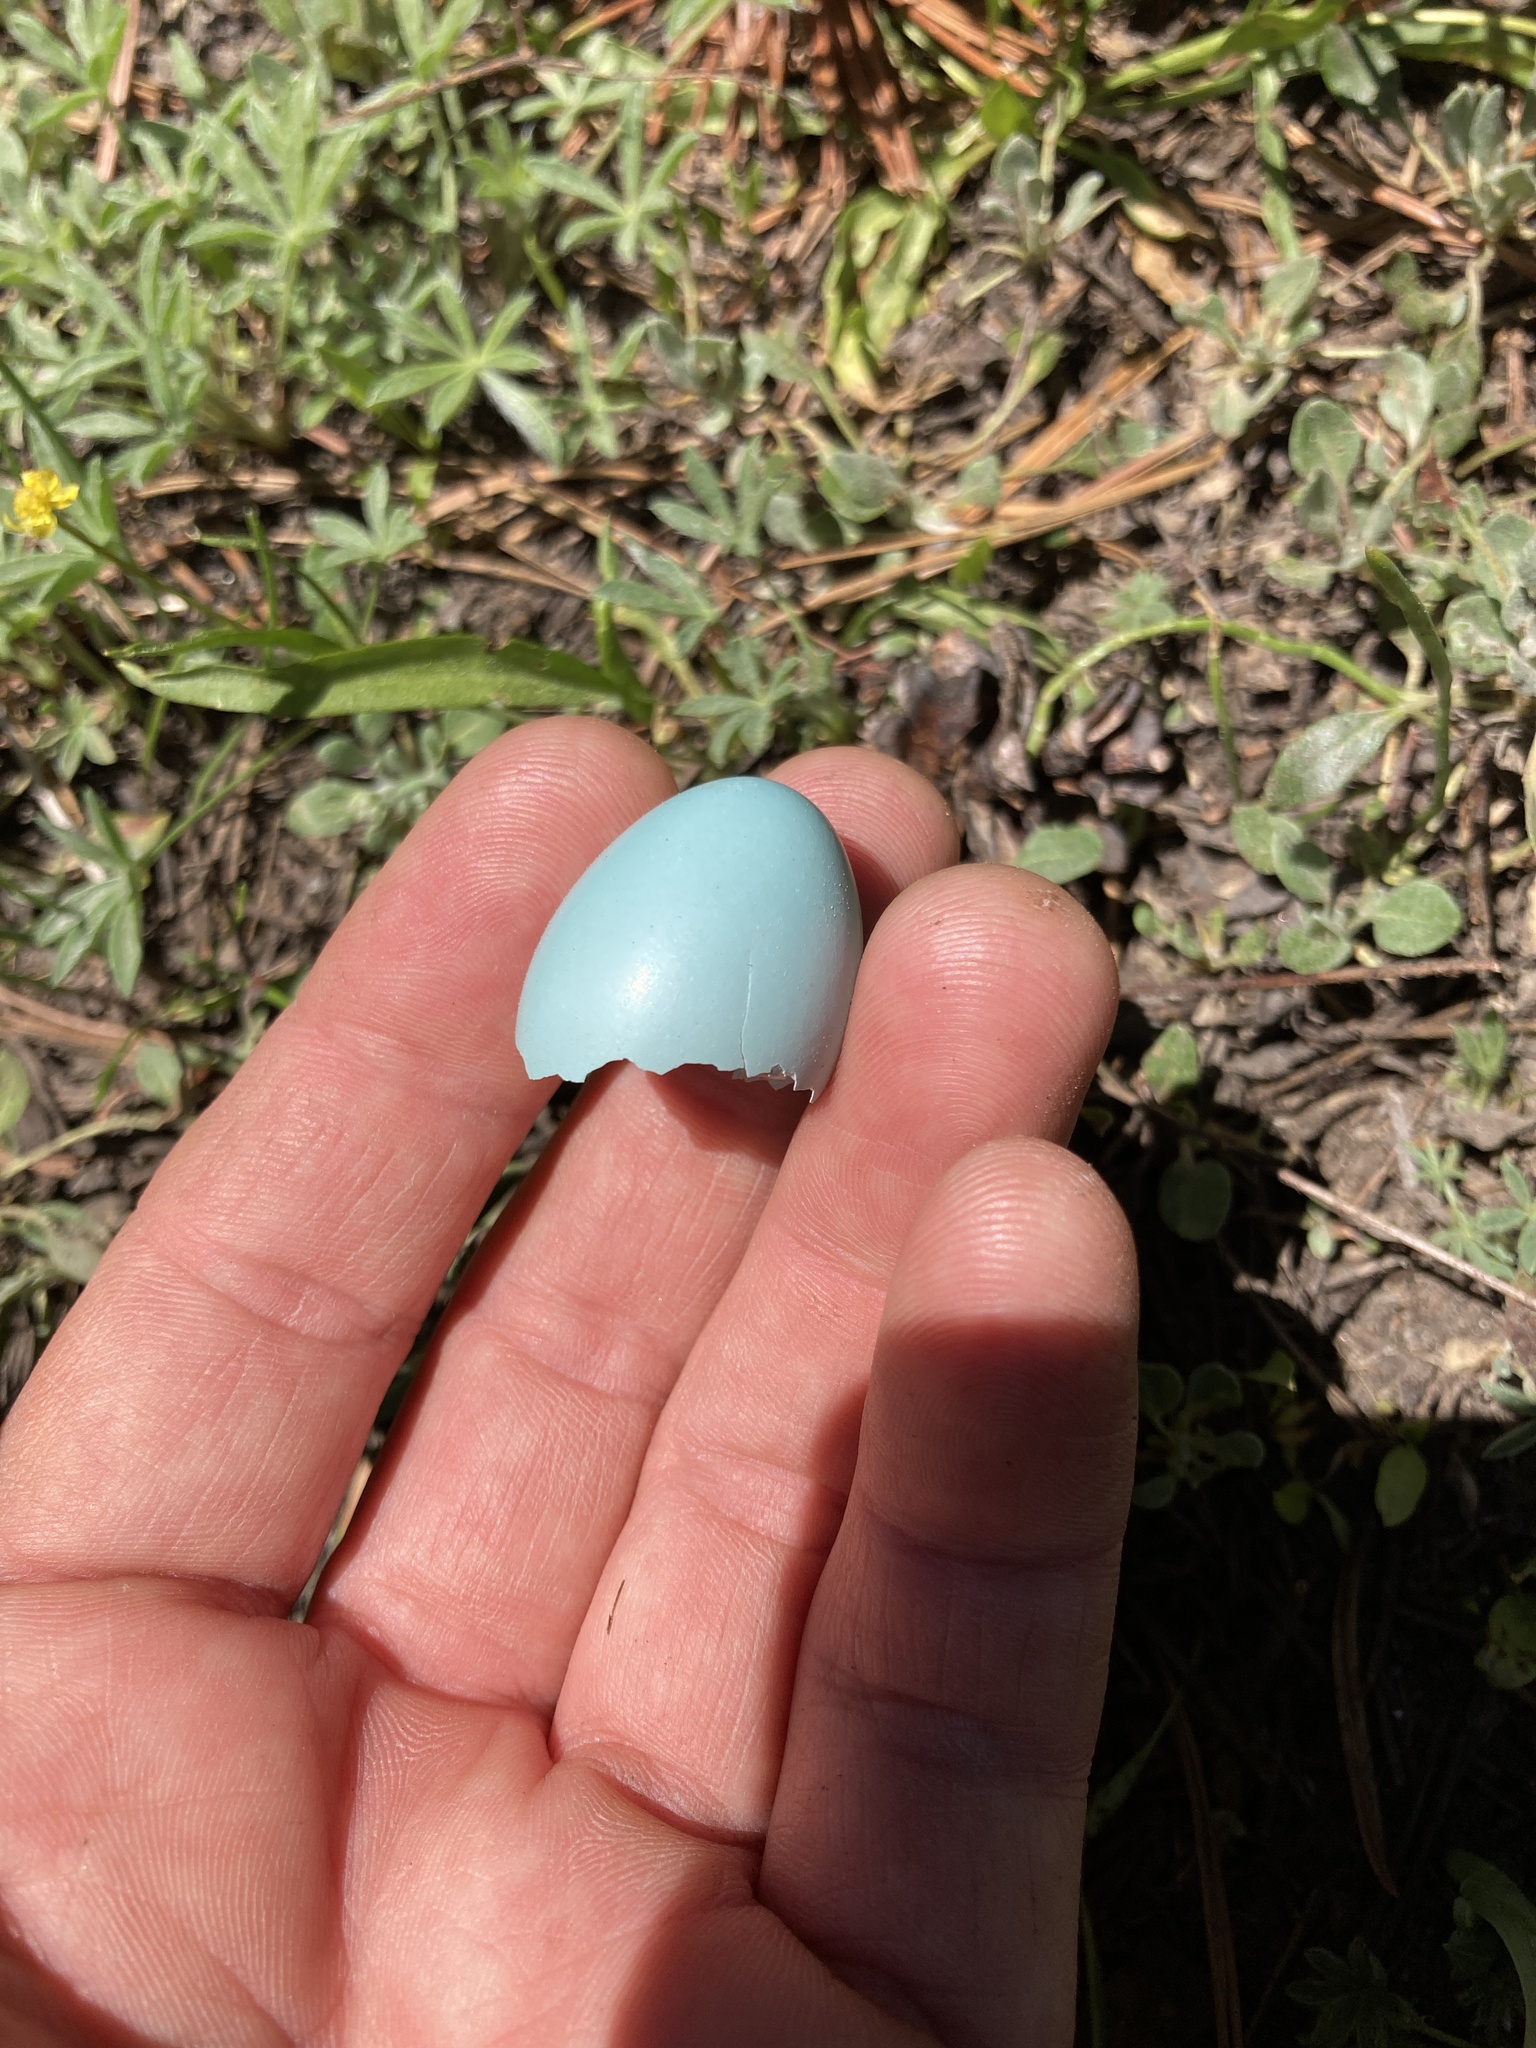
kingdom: Animalia
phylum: Chordata
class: Aves
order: Passeriformes
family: Turdidae
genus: Turdus
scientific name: Turdus migratorius
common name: American robin
